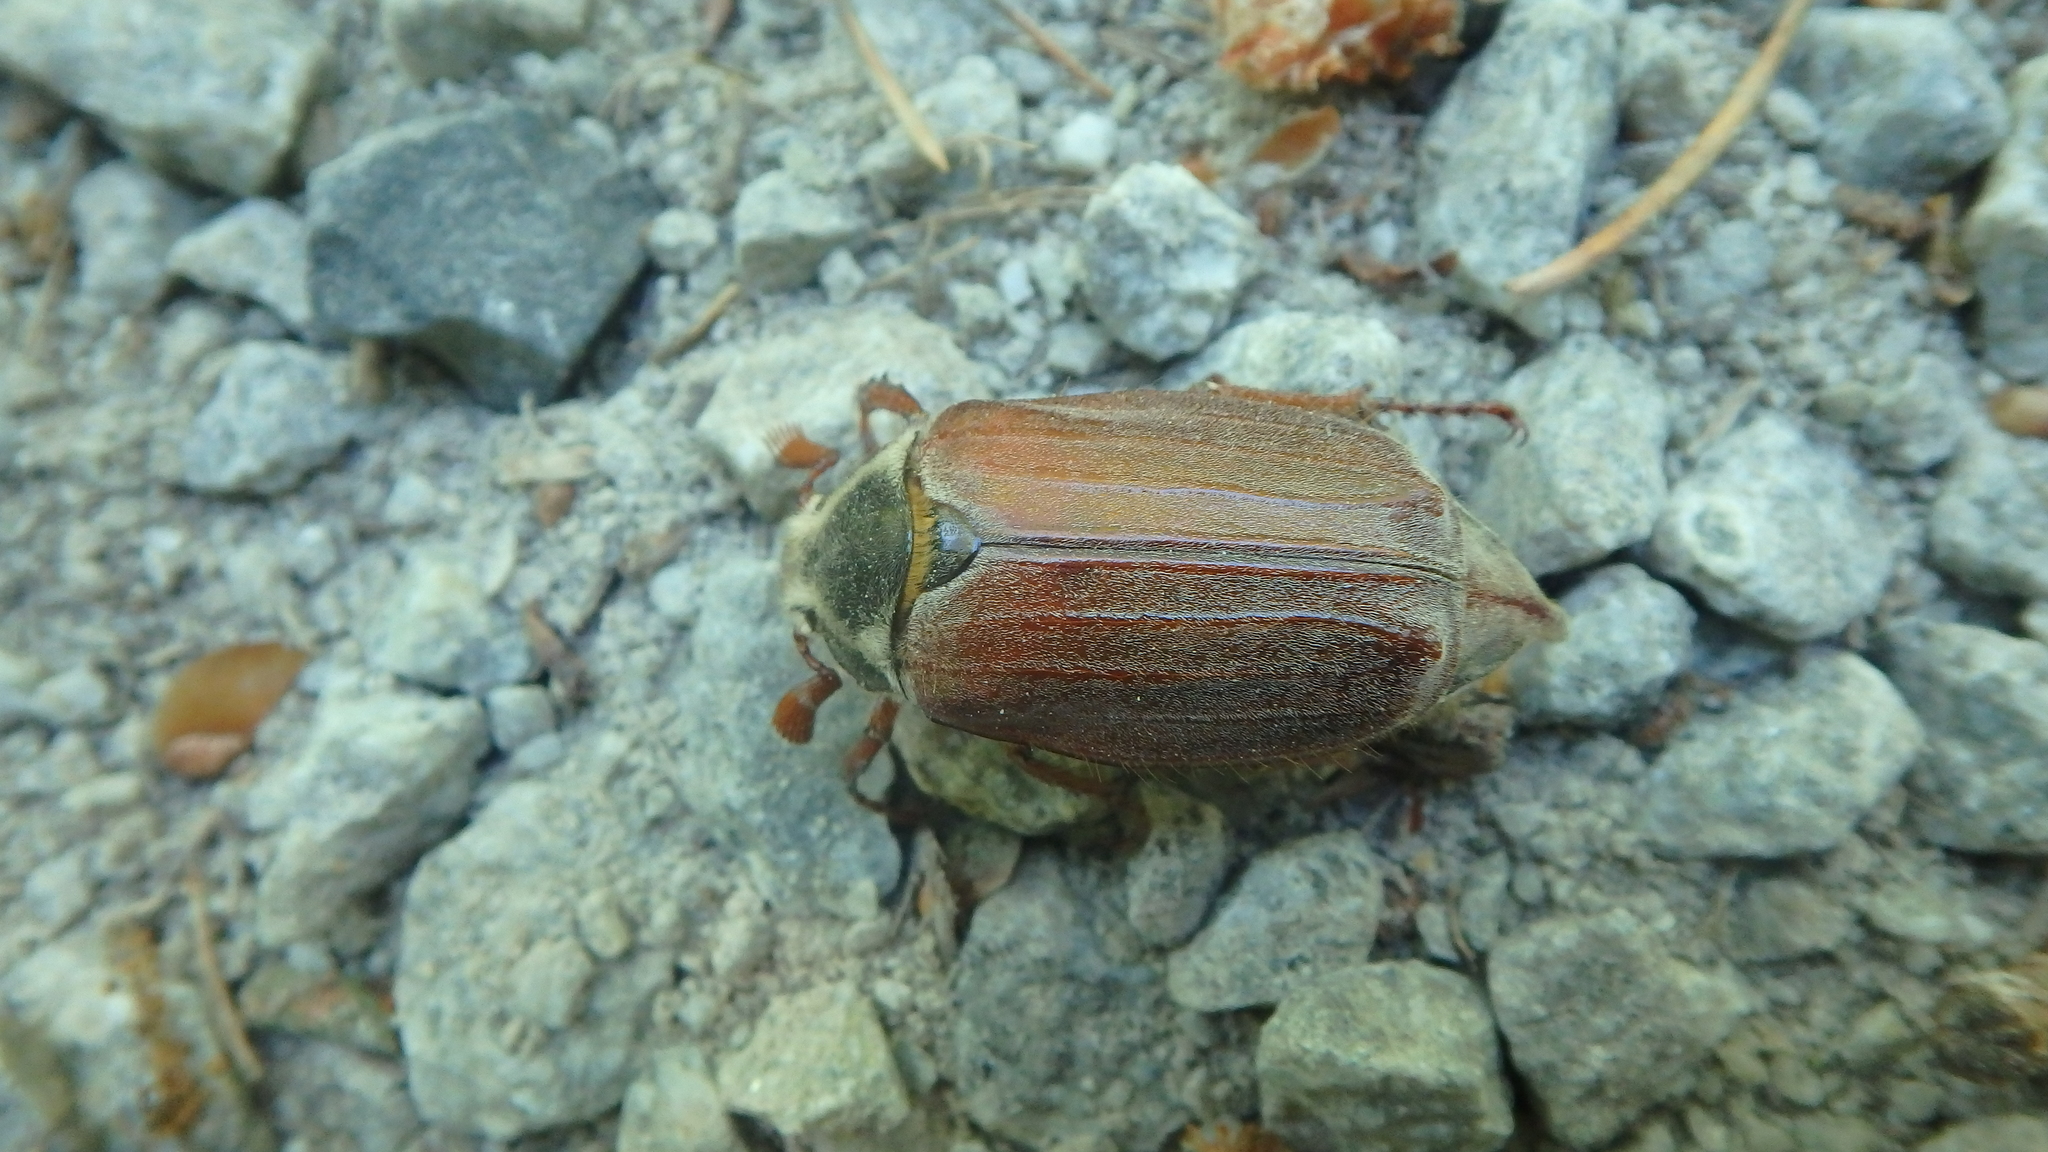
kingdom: Animalia
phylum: Arthropoda
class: Insecta
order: Coleoptera
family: Scarabaeidae
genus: Melolontha
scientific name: Melolontha melolontha
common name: Cockchafer maybeetle
